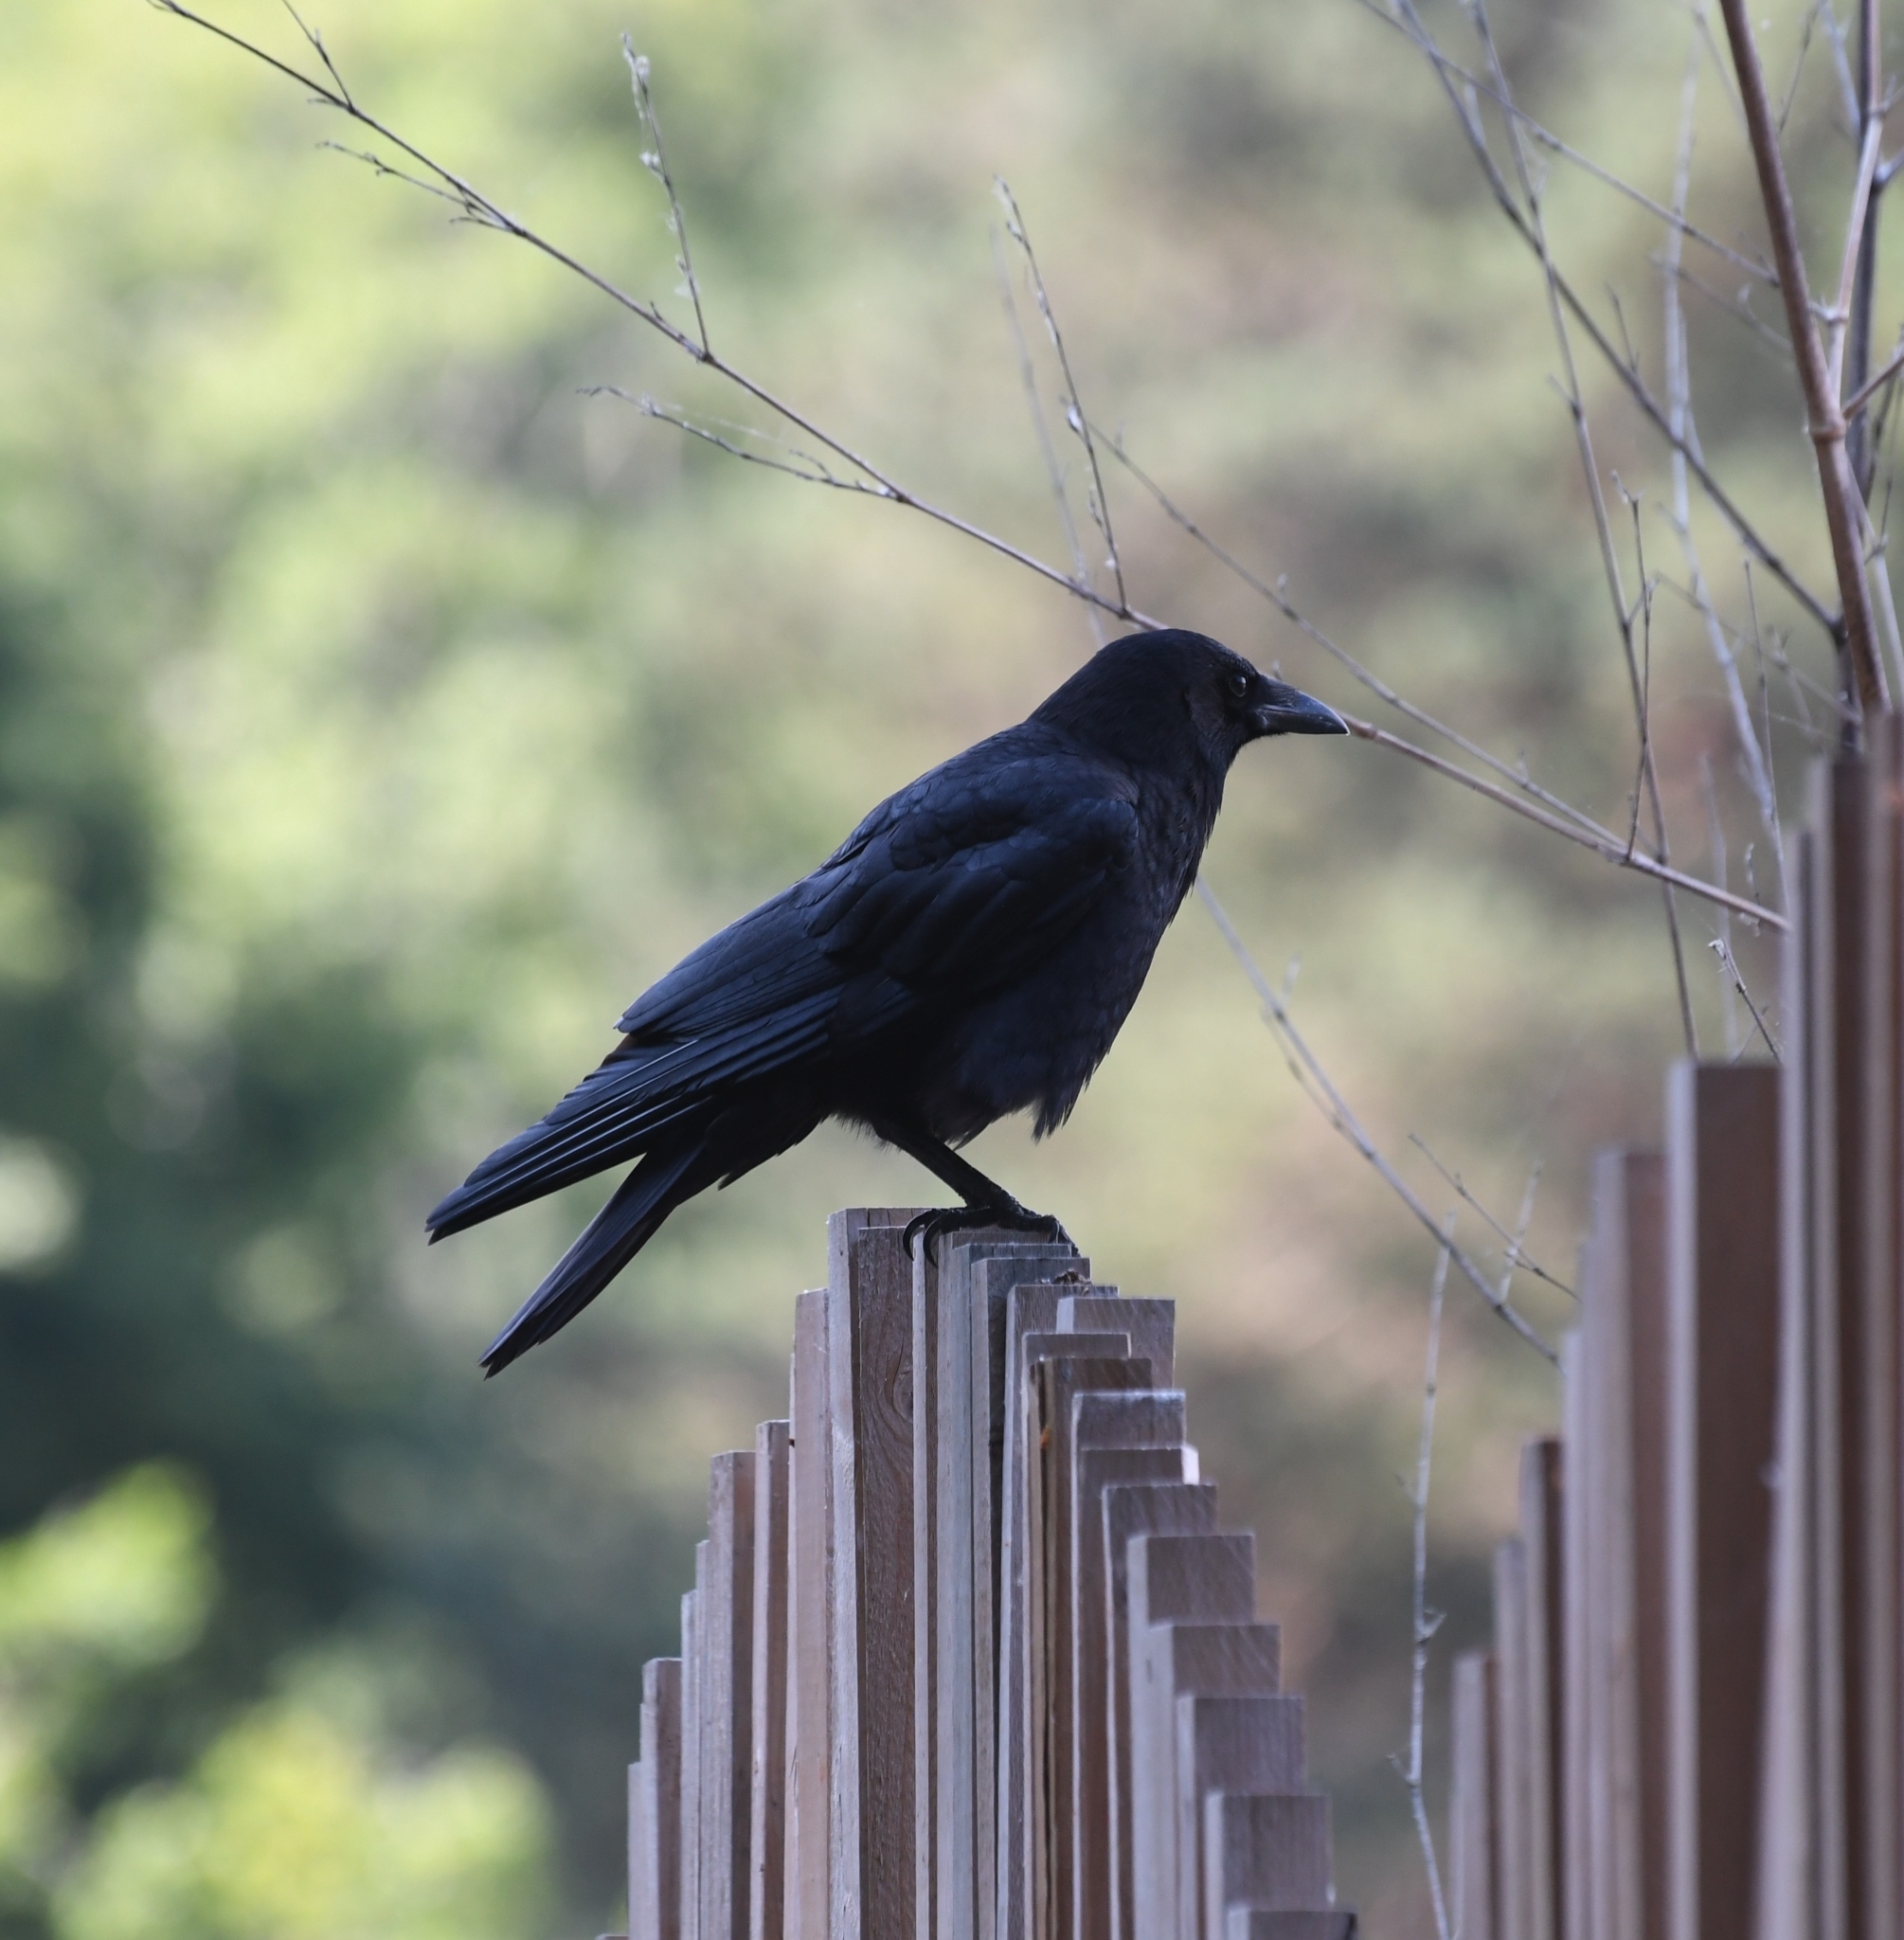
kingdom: Animalia
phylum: Chordata
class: Aves
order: Passeriformes
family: Corvidae
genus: Corvus
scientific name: Corvus brachyrhynchos
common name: American crow
